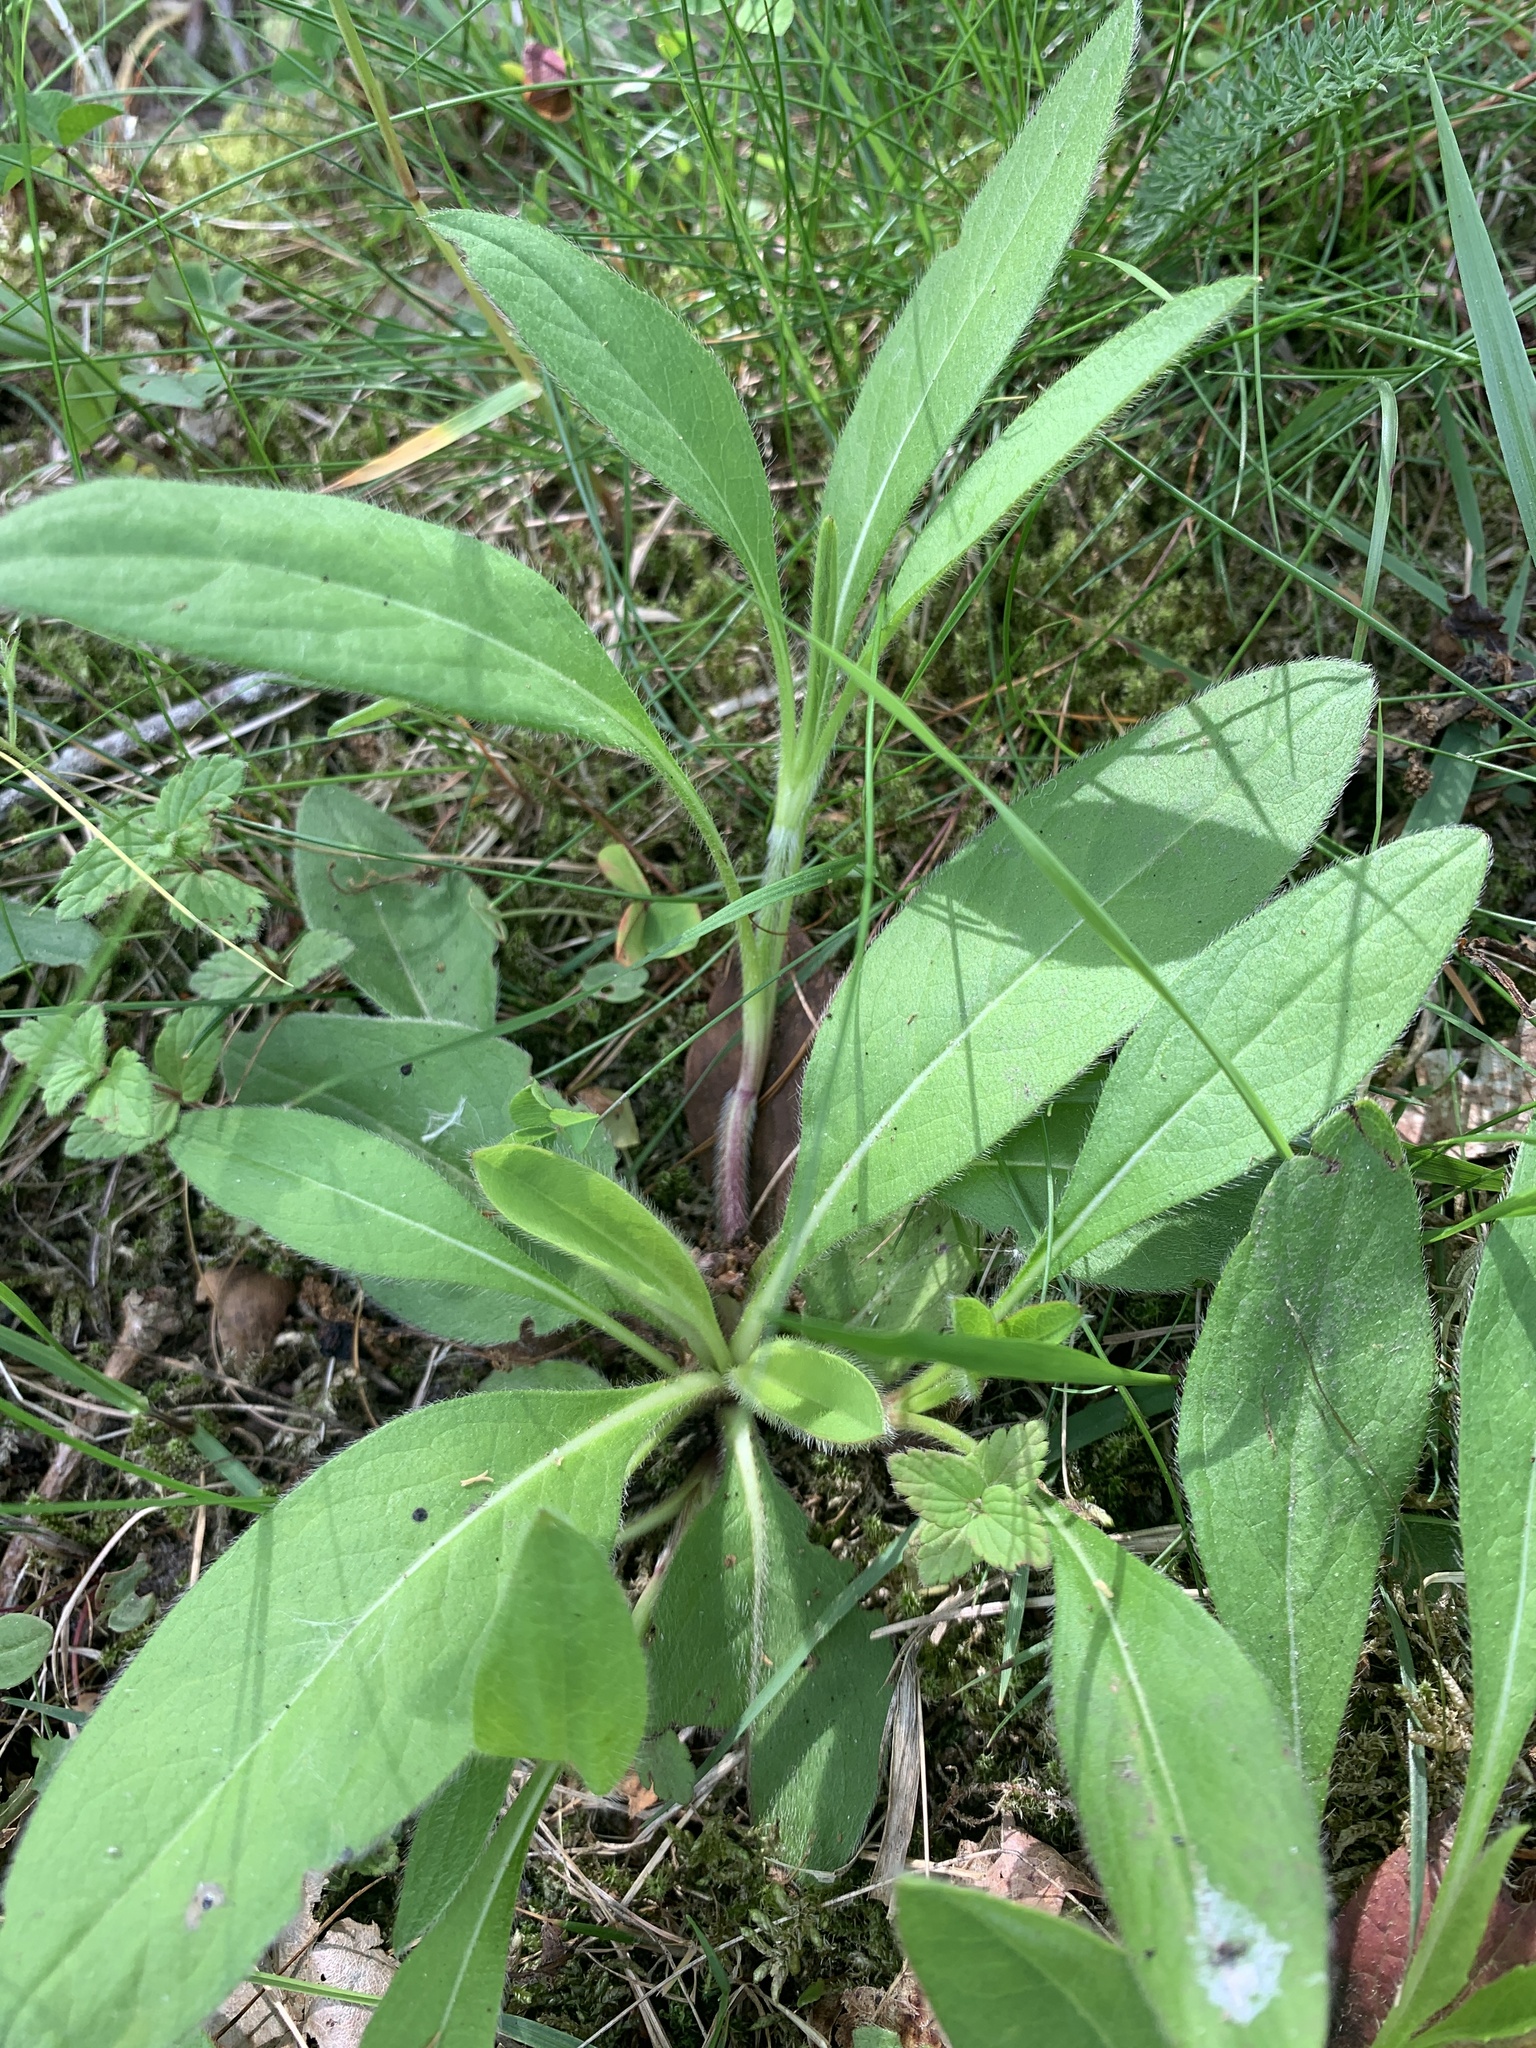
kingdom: Plantae
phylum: Tracheophyta
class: Magnoliopsida
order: Dipsacales
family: Caprifoliaceae
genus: Succisa
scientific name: Succisa pratensis
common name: Devil's-bit
